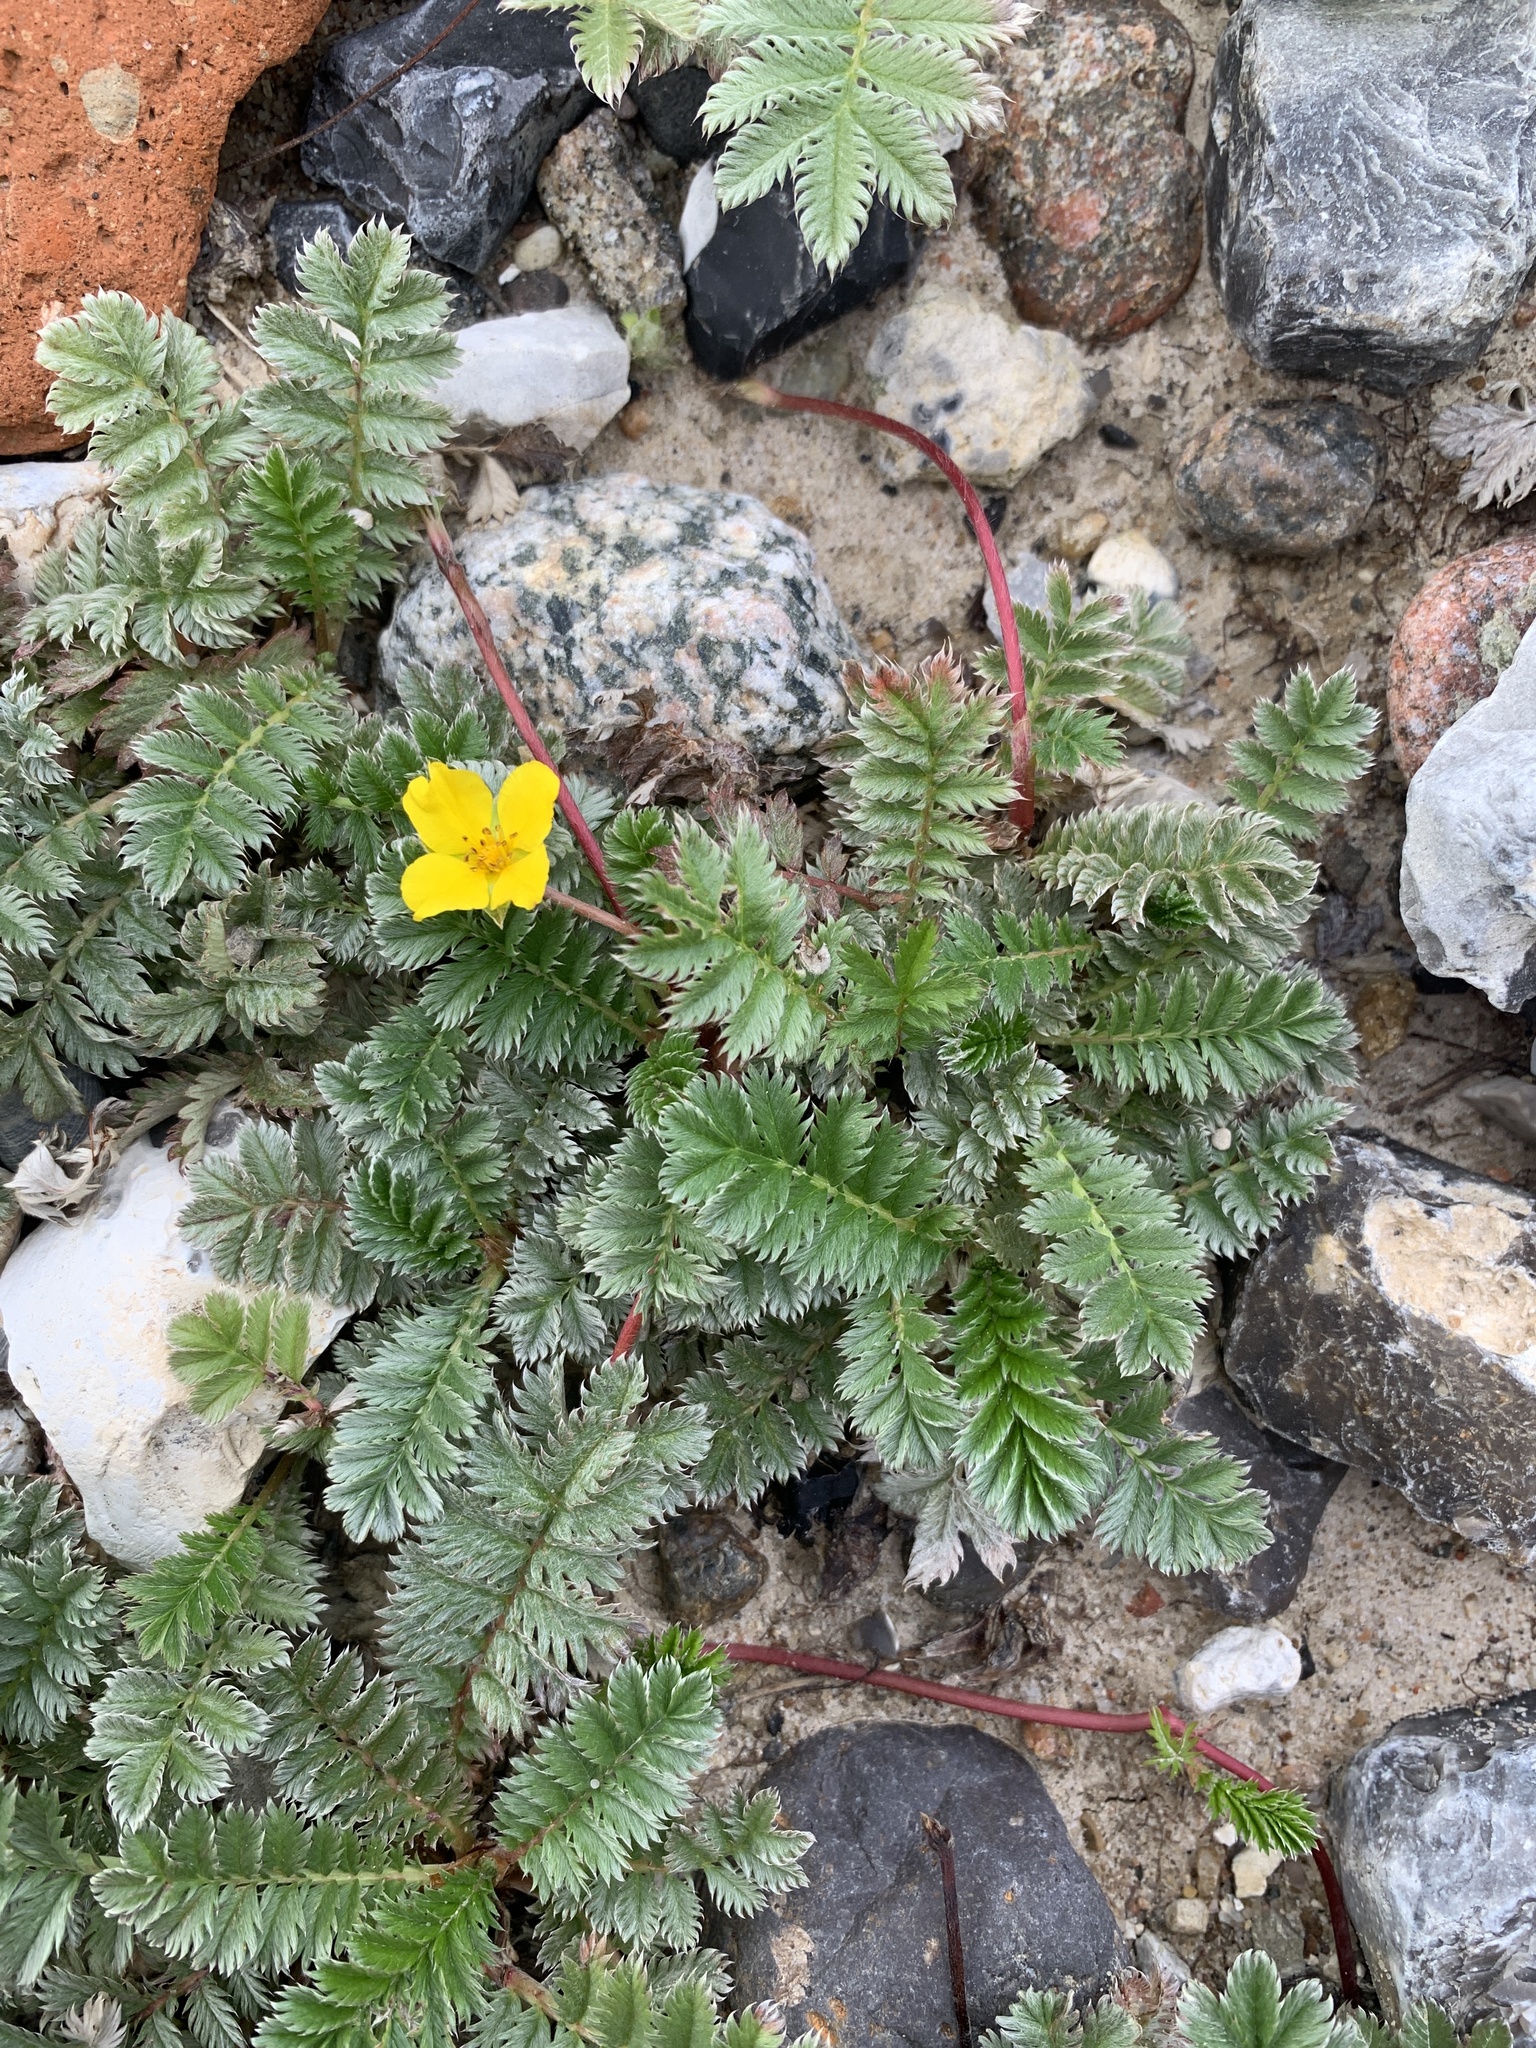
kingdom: Plantae
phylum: Tracheophyta
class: Magnoliopsida
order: Rosales
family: Rosaceae
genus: Argentina
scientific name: Argentina anserina
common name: Common silverweed
